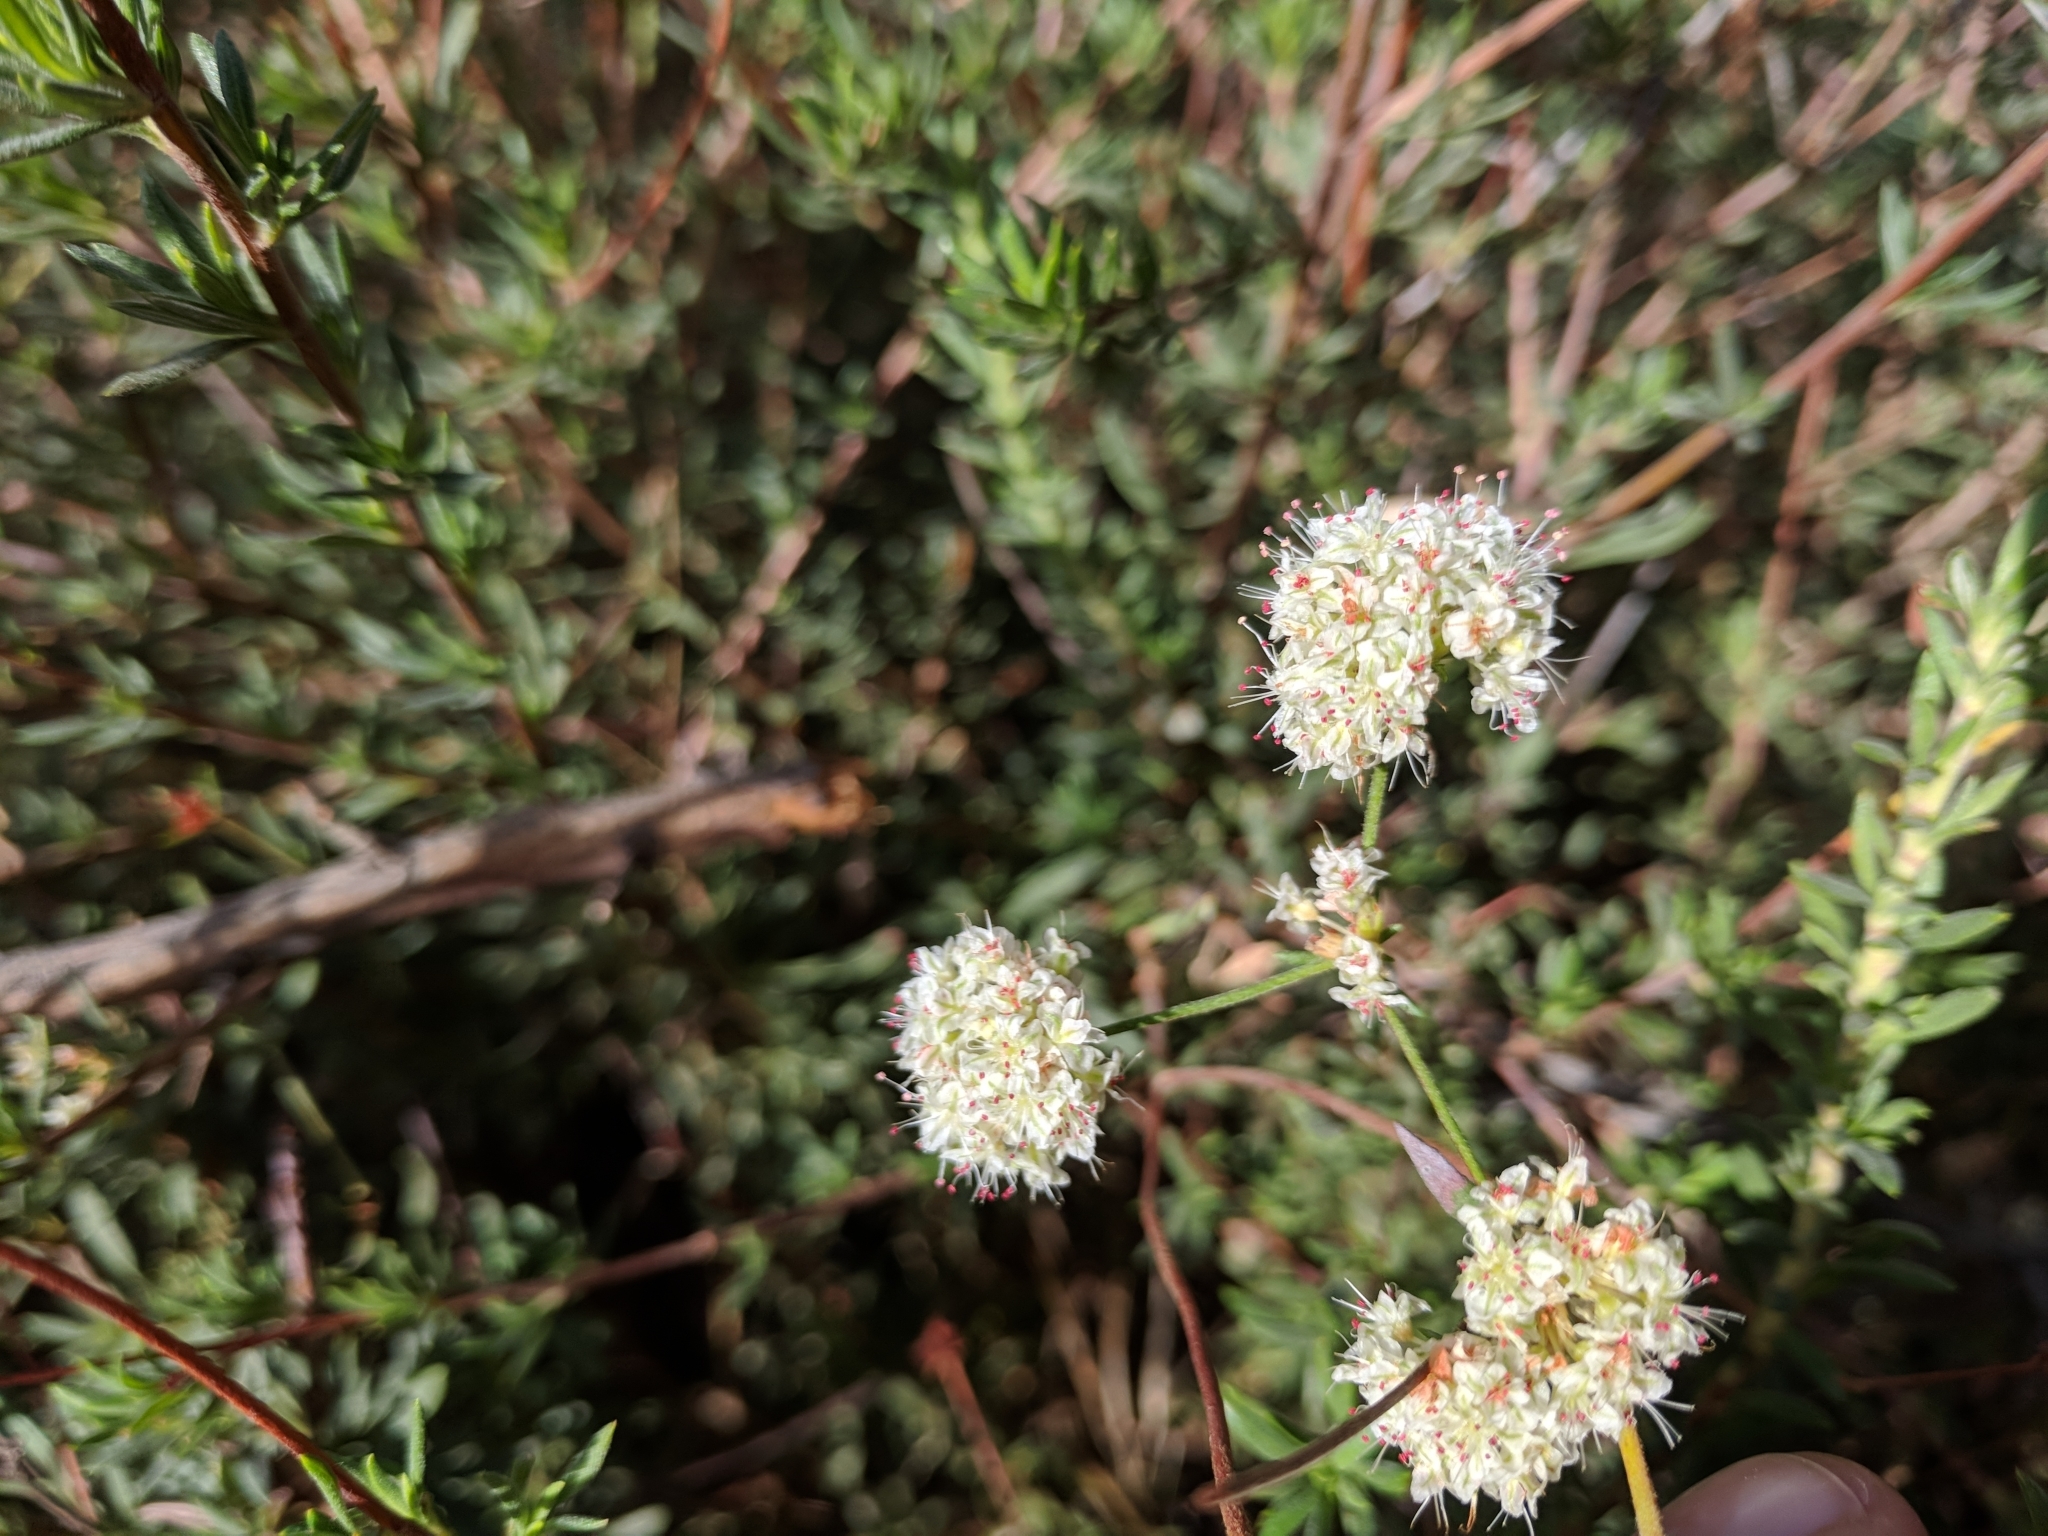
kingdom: Plantae
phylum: Tracheophyta
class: Magnoliopsida
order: Caryophyllales
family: Polygonaceae
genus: Eriogonum
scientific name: Eriogonum fasciculatum
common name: California wild buckwheat
